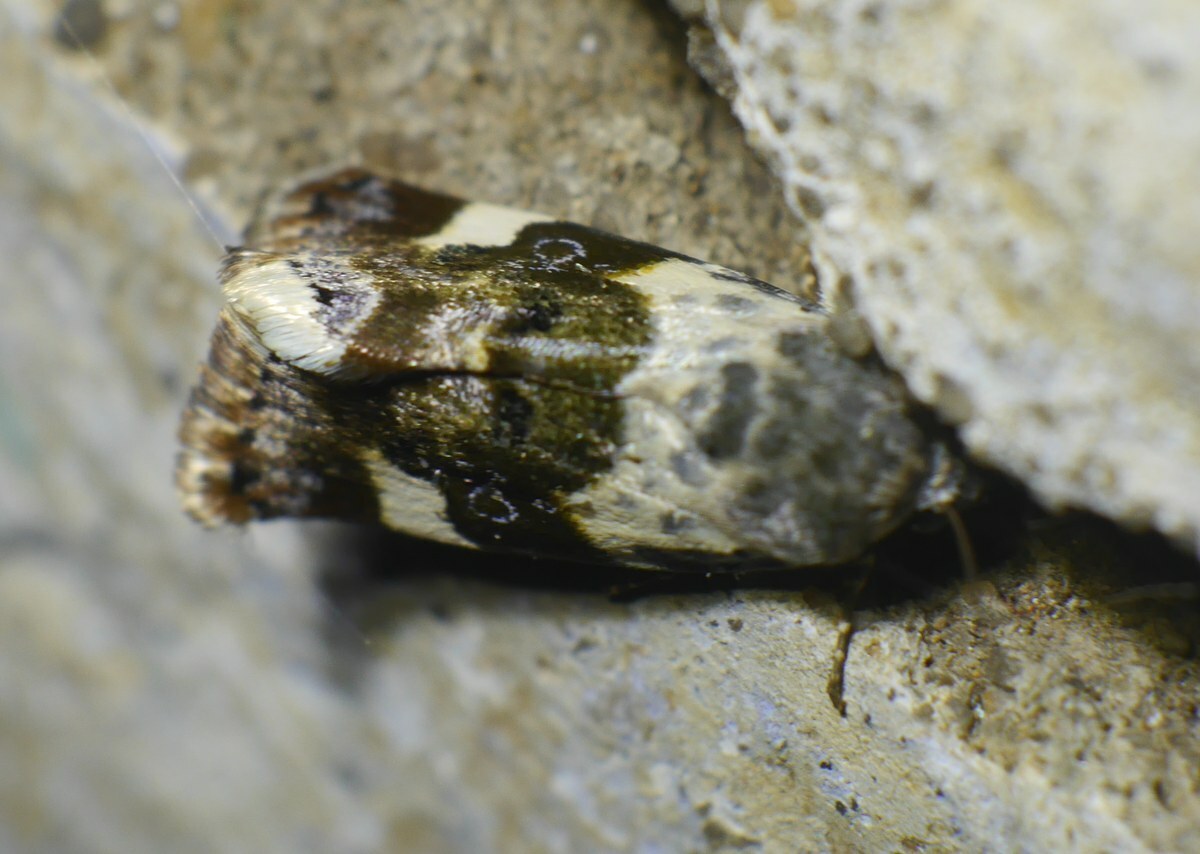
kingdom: Animalia
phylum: Arthropoda
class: Insecta
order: Lepidoptera
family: Noctuidae
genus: Acontia
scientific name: Acontia lucida
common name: Pale shoulder
